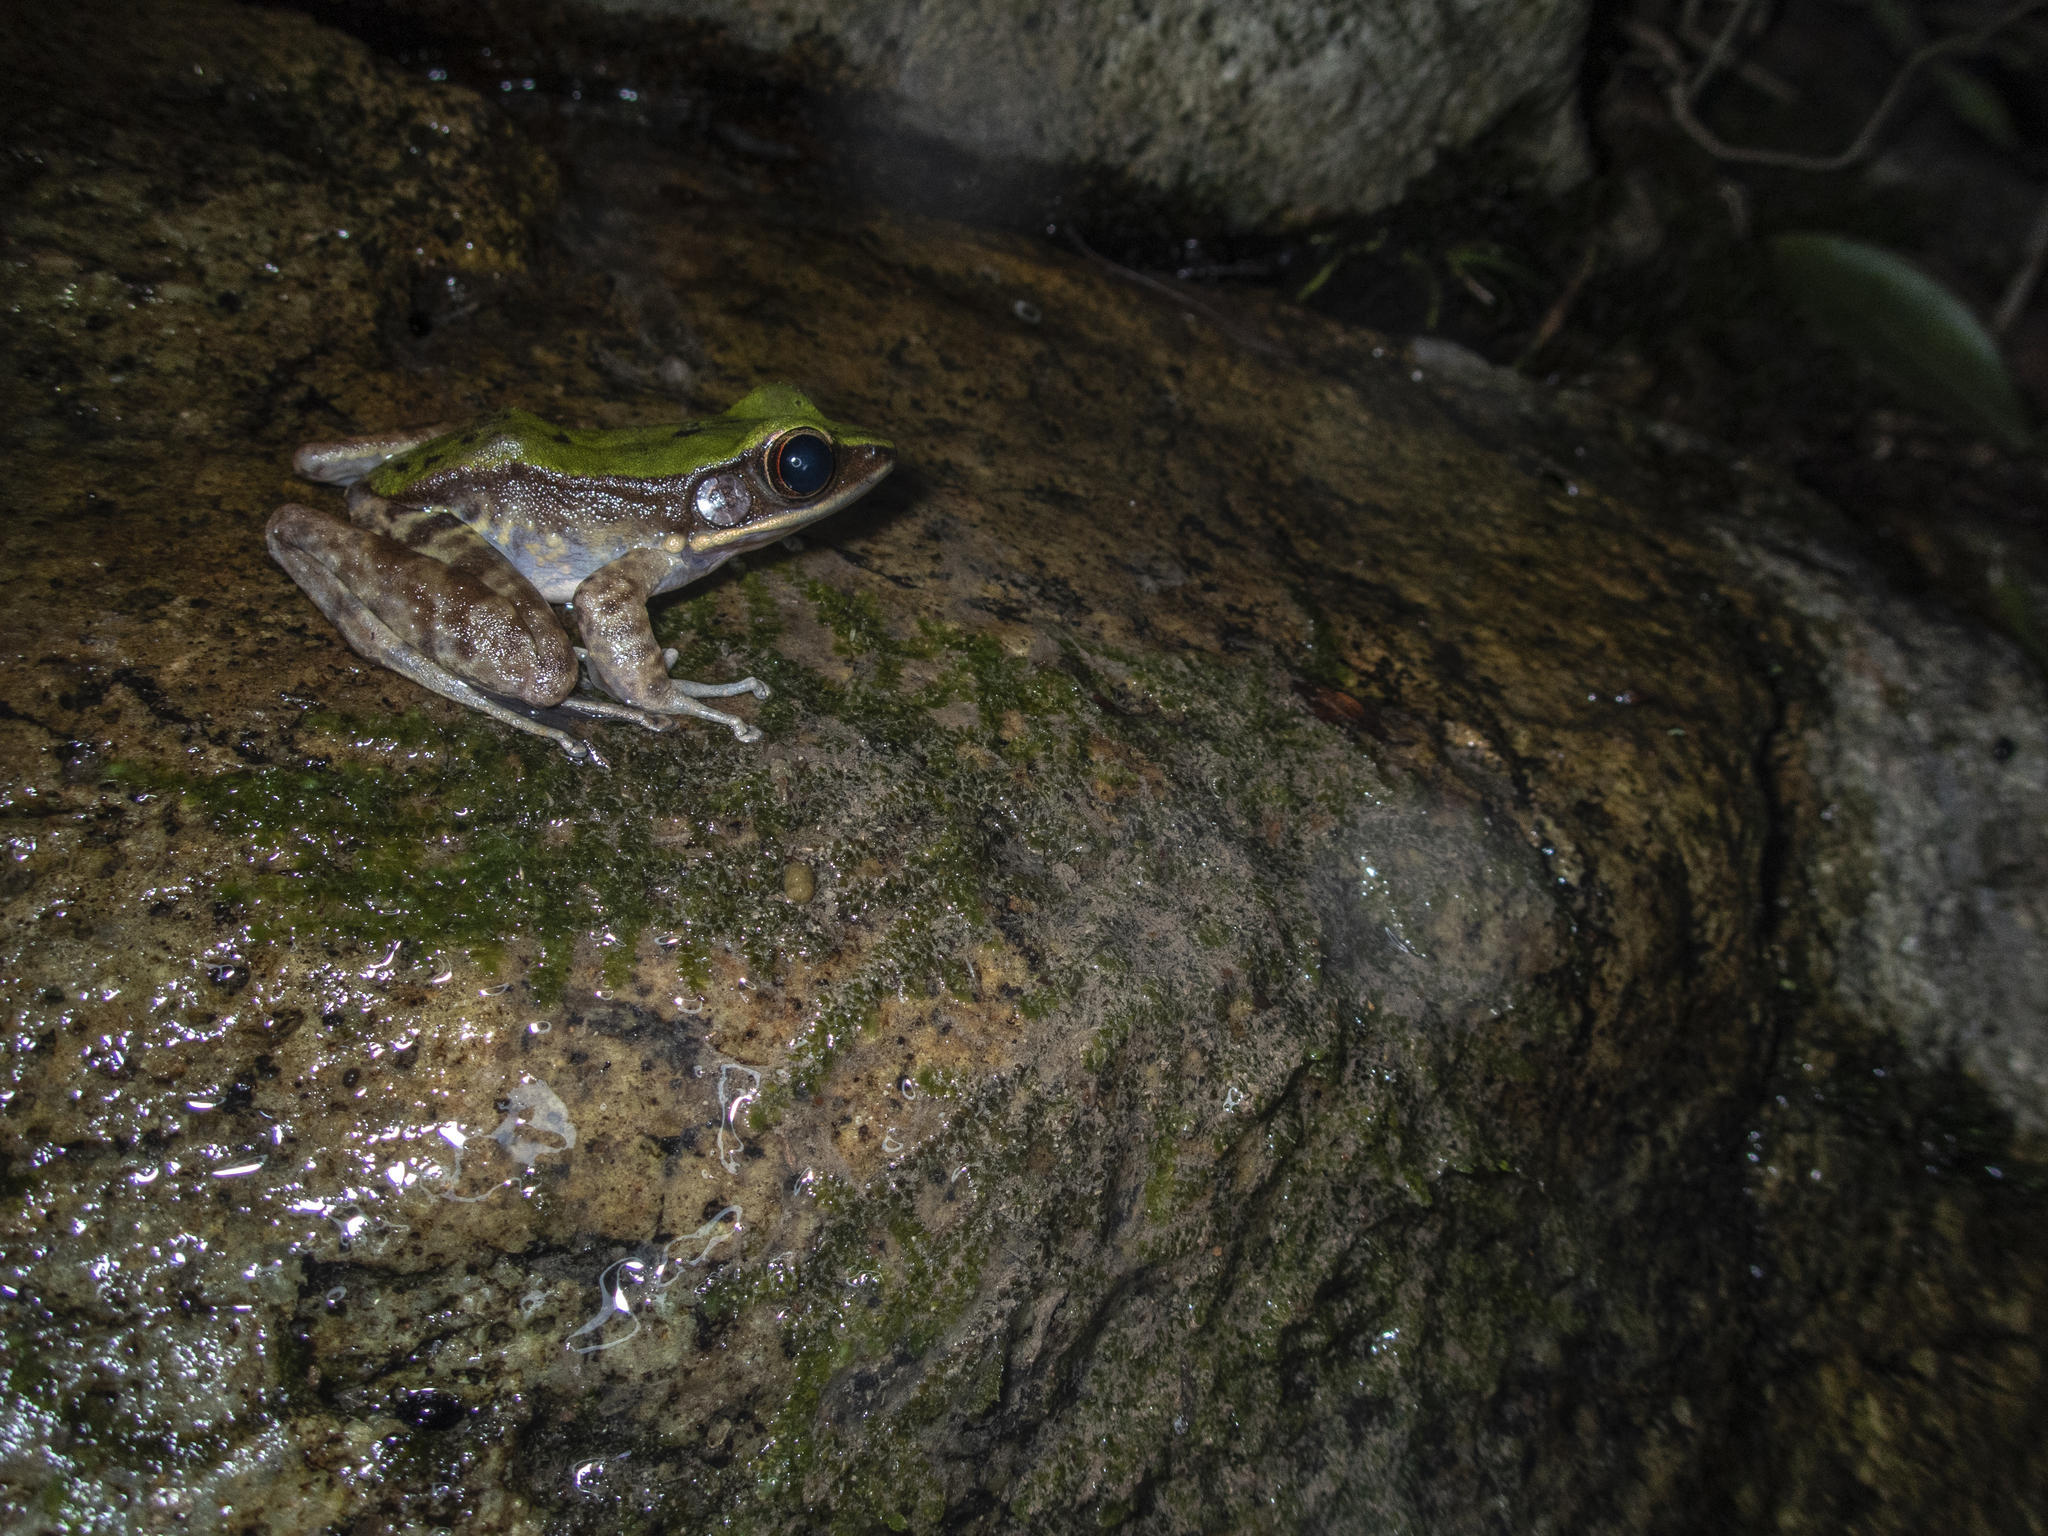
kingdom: Animalia
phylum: Chordata
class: Amphibia
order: Anura
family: Ranidae
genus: Odorrana
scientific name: Odorrana graminea
